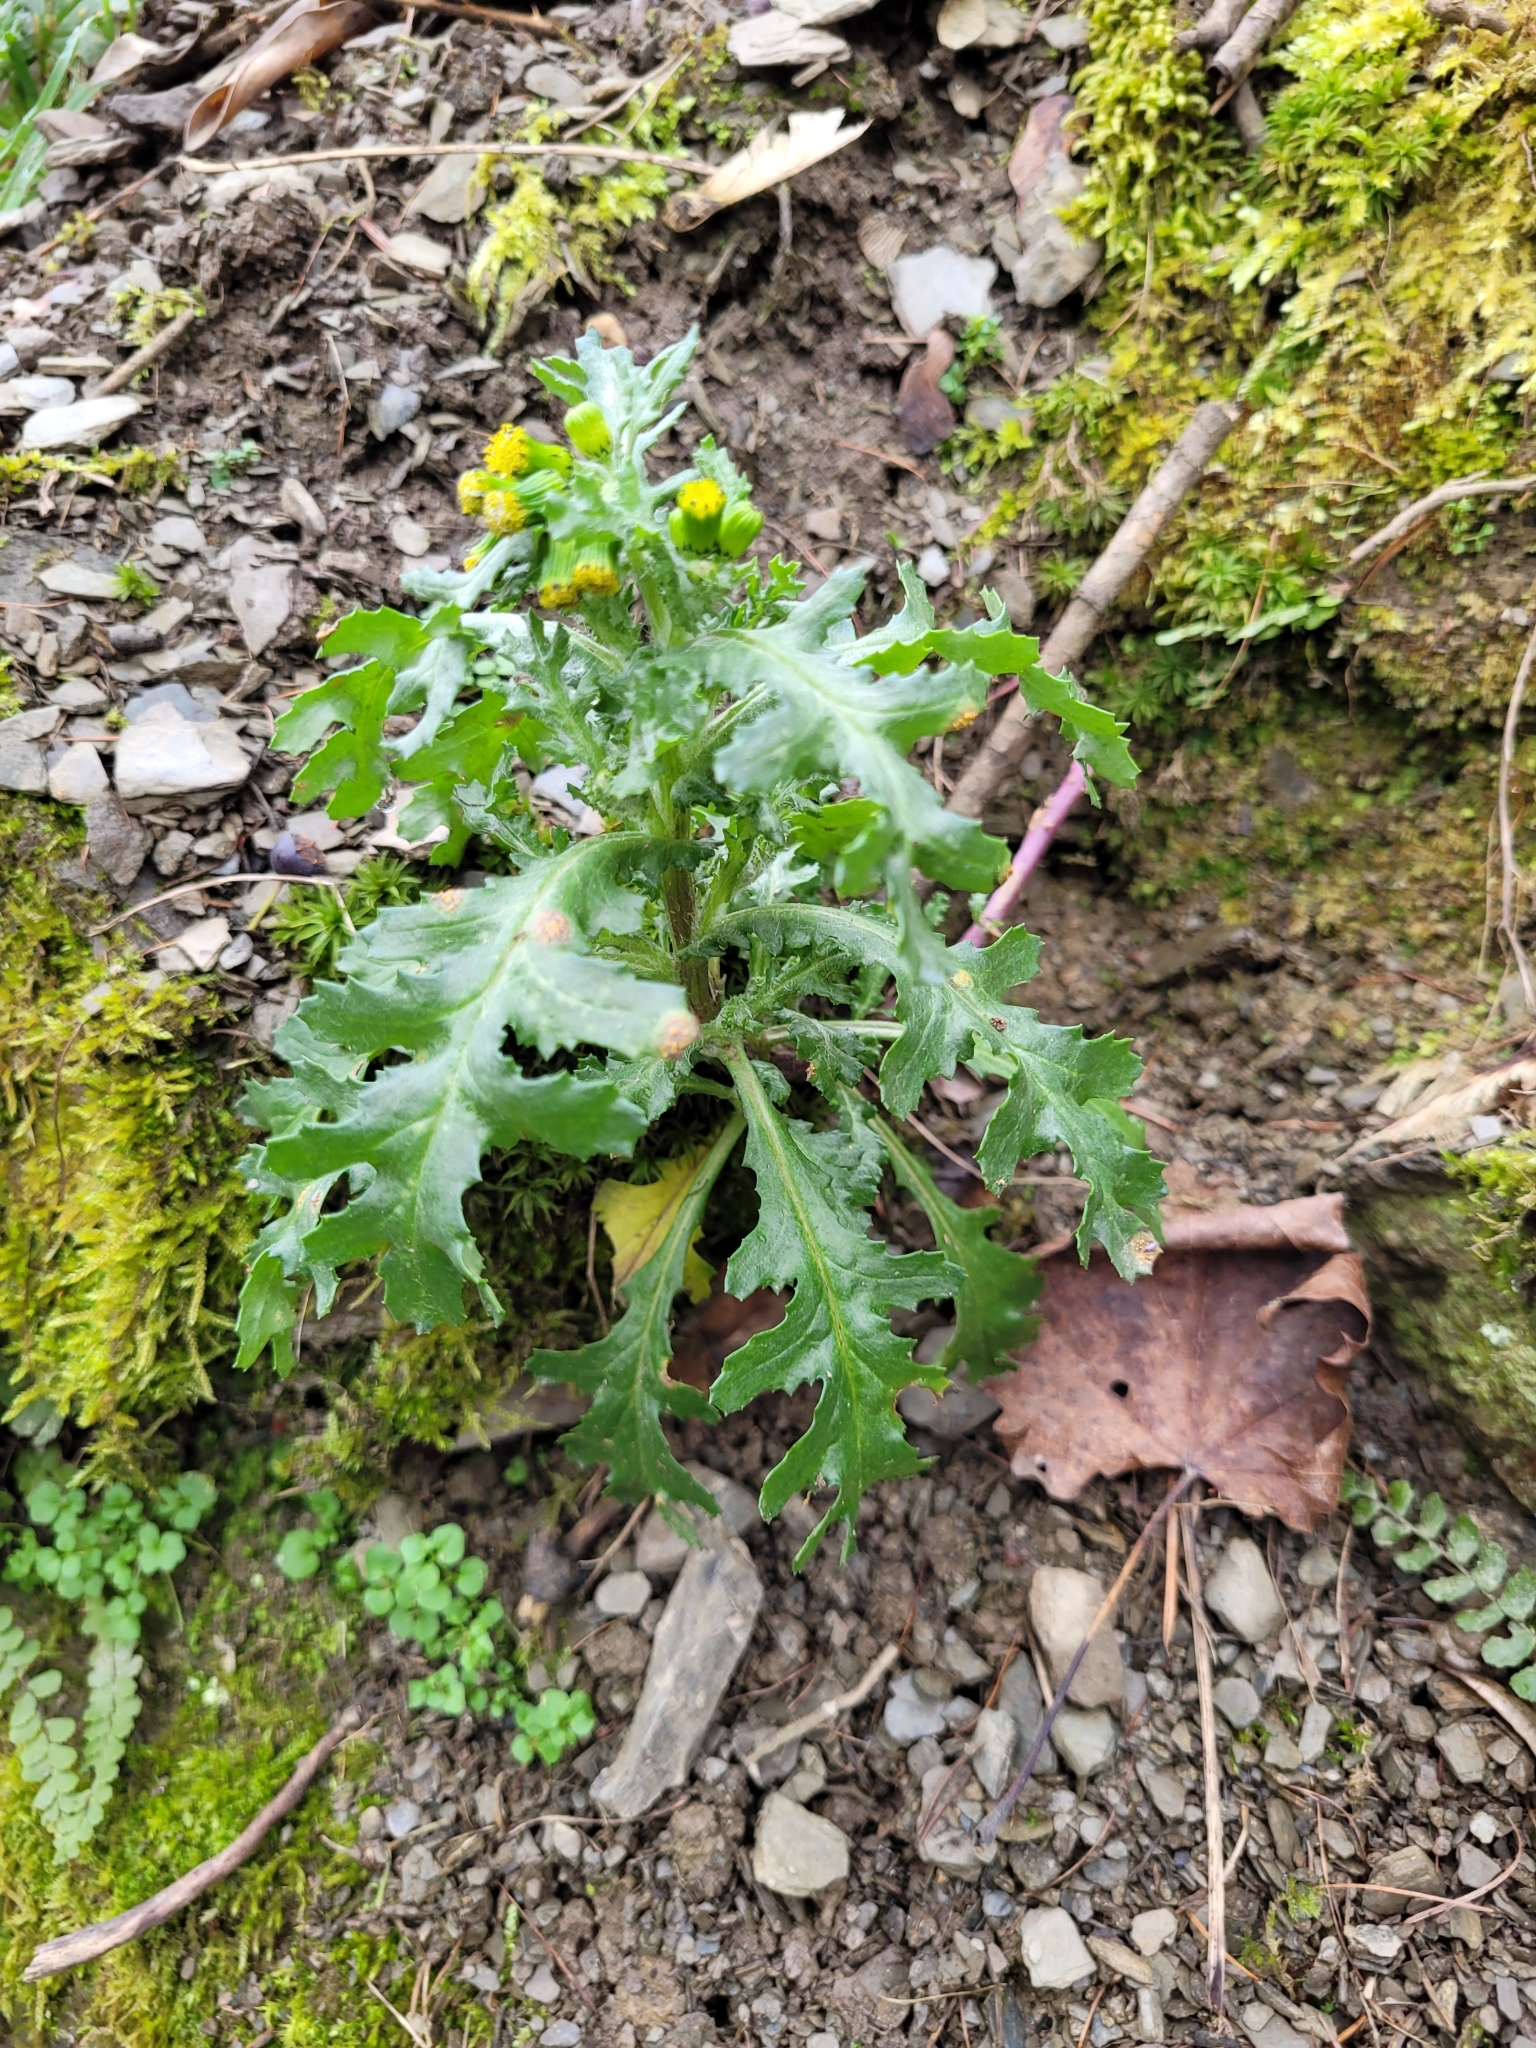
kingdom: Plantae
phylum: Tracheophyta
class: Magnoliopsida
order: Asterales
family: Asteraceae
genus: Senecio
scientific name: Senecio vulgaris
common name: Old-man-in-the-spring
